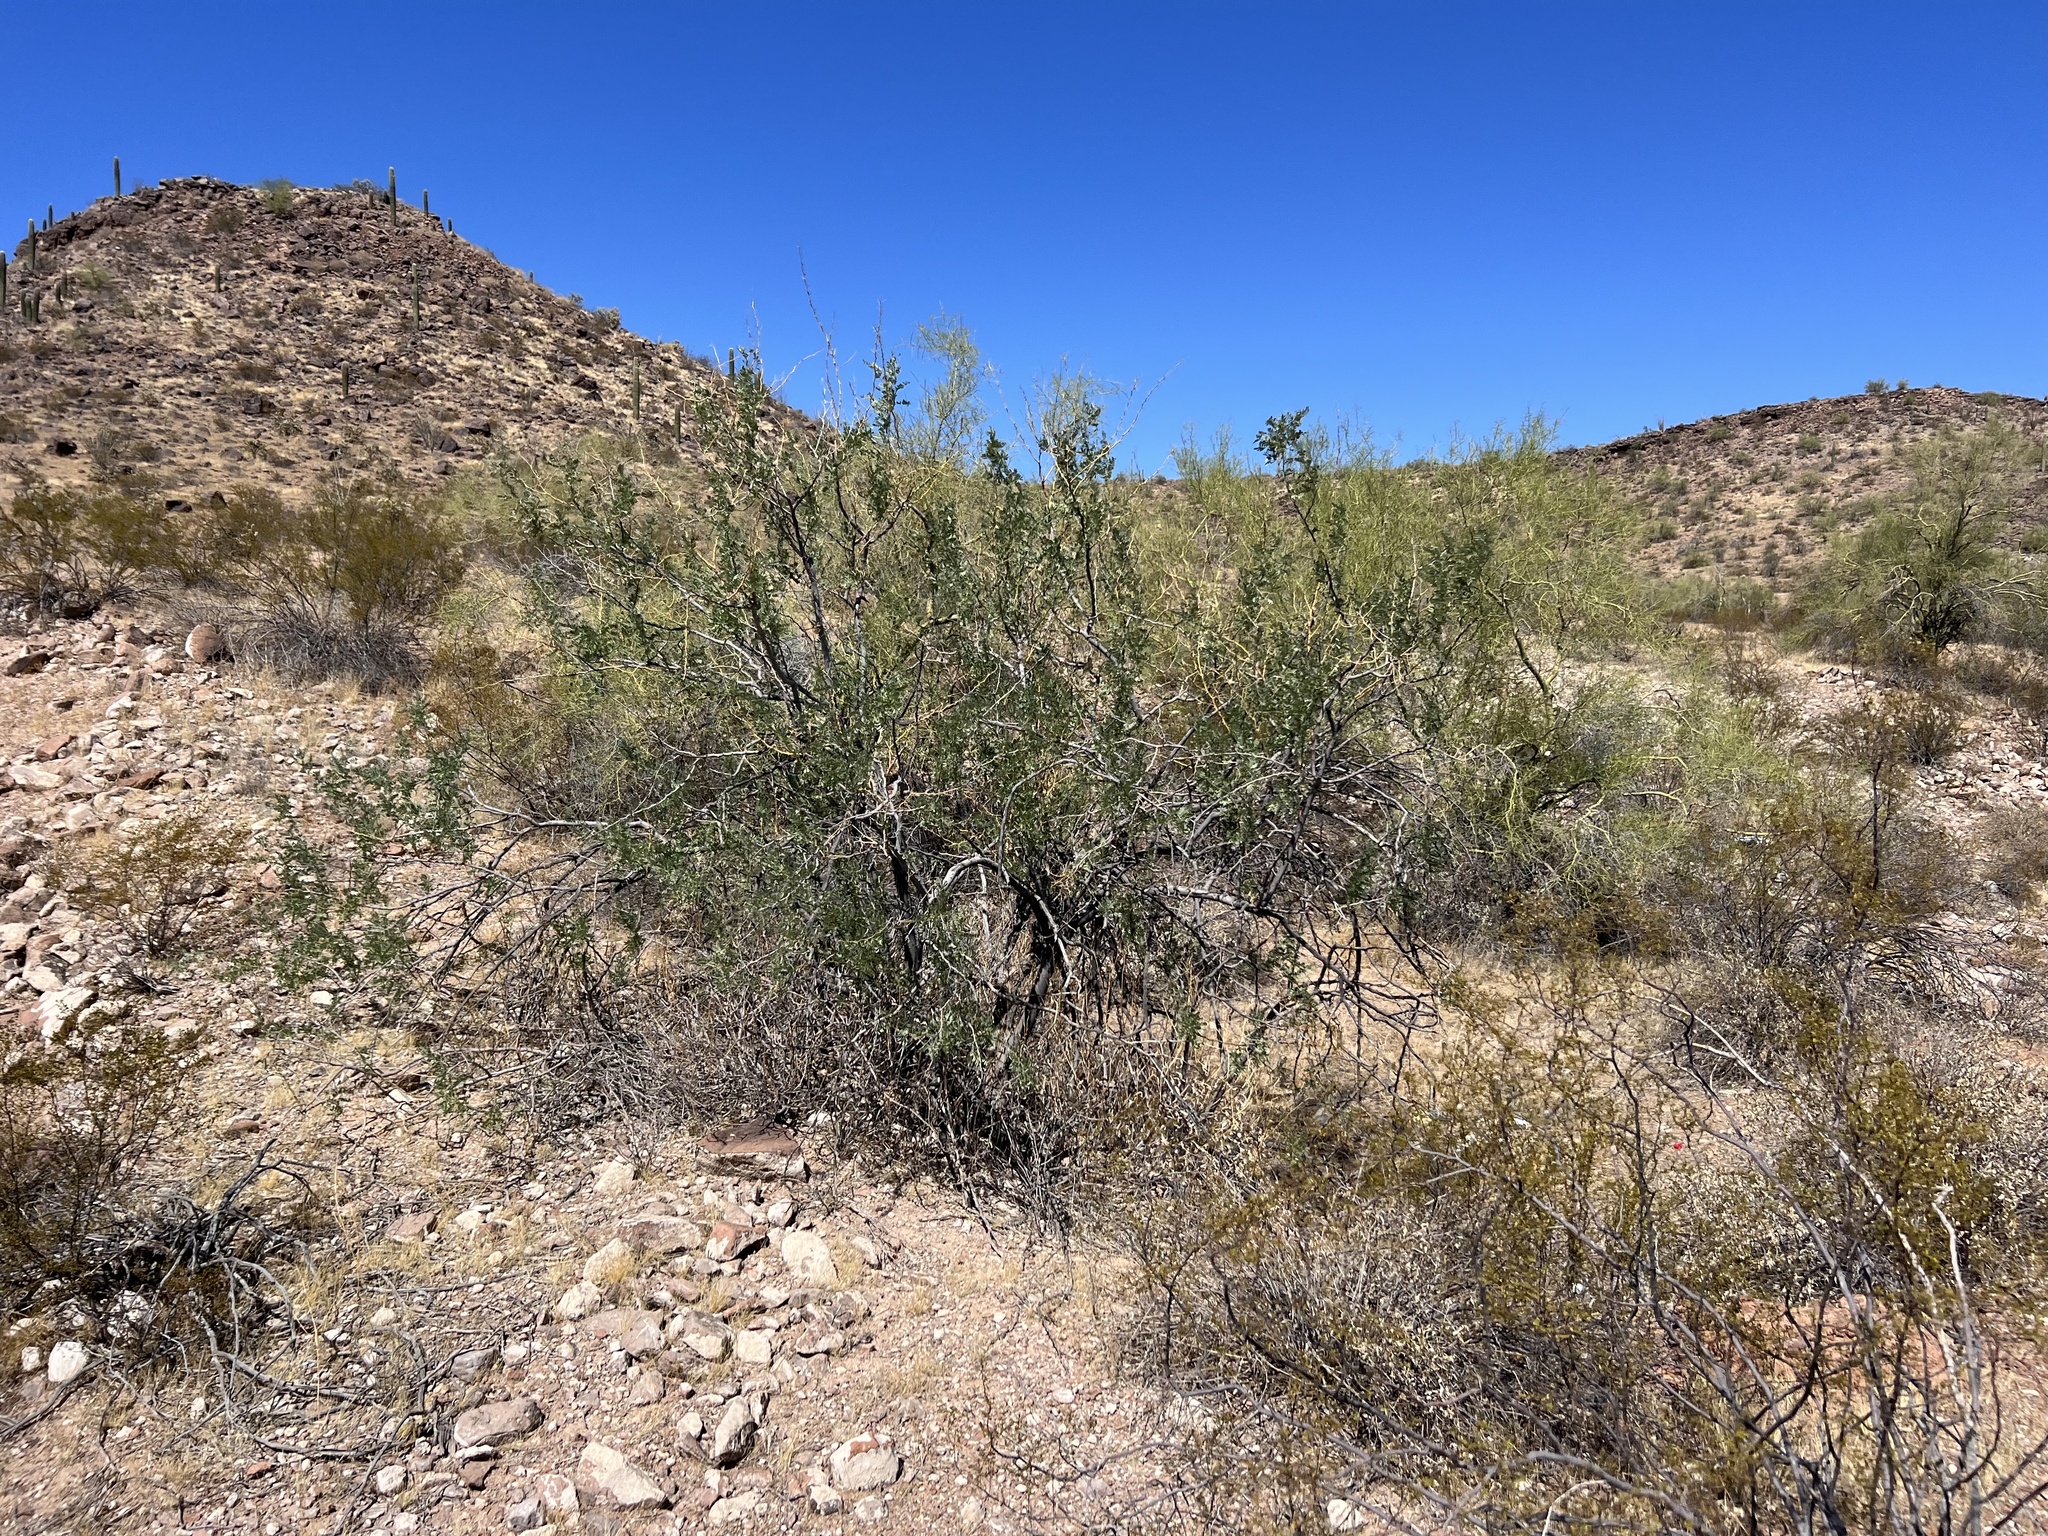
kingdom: Plantae
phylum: Tracheophyta
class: Magnoliopsida
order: Fabales
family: Fabaceae
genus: Olneya
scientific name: Olneya tesota
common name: Desert ironwood
